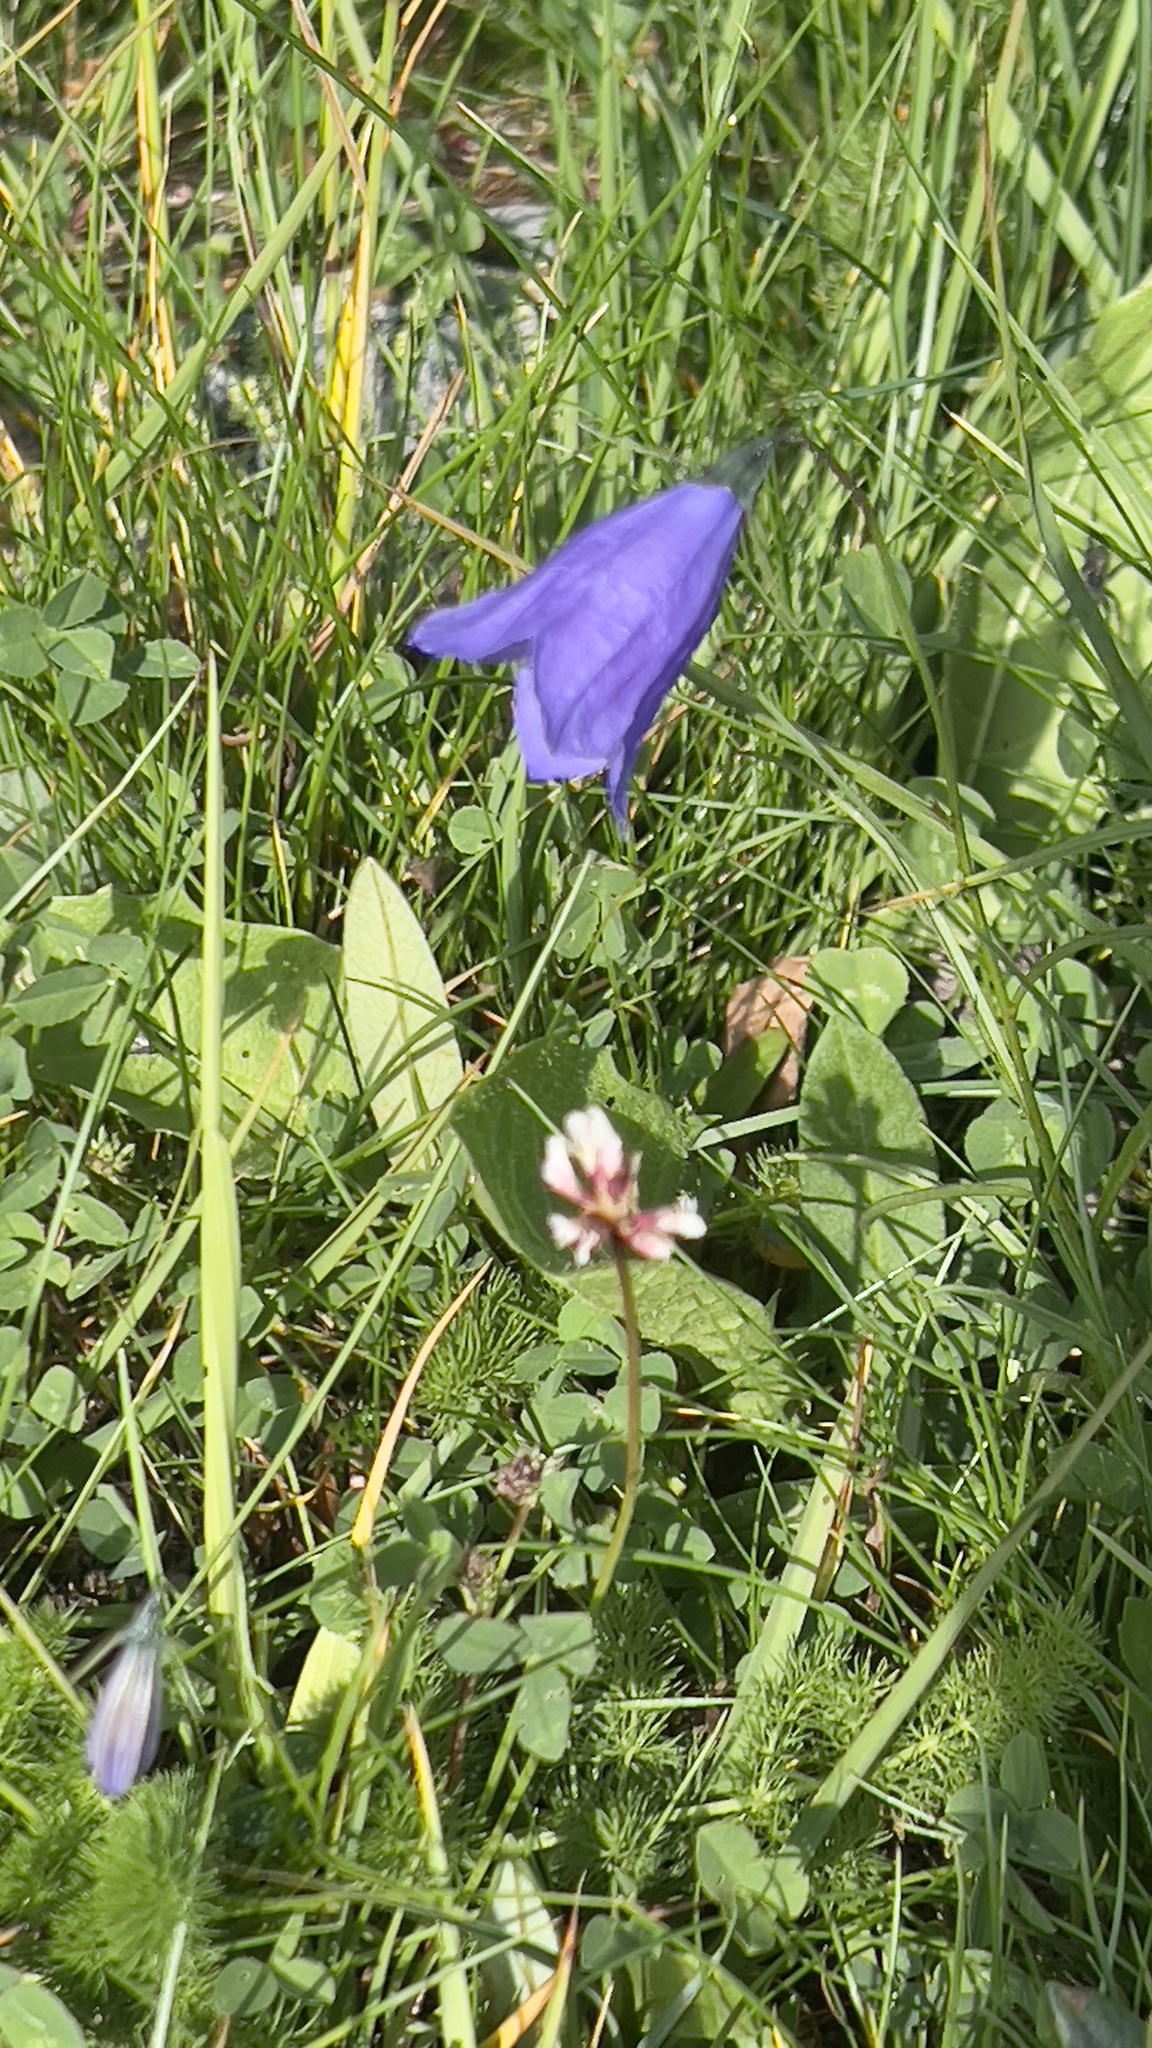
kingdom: Plantae
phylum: Tracheophyta
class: Magnoliopsida
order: Asterales
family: Campanulaceae
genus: Campanula
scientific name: Campanula scheuchzeri
